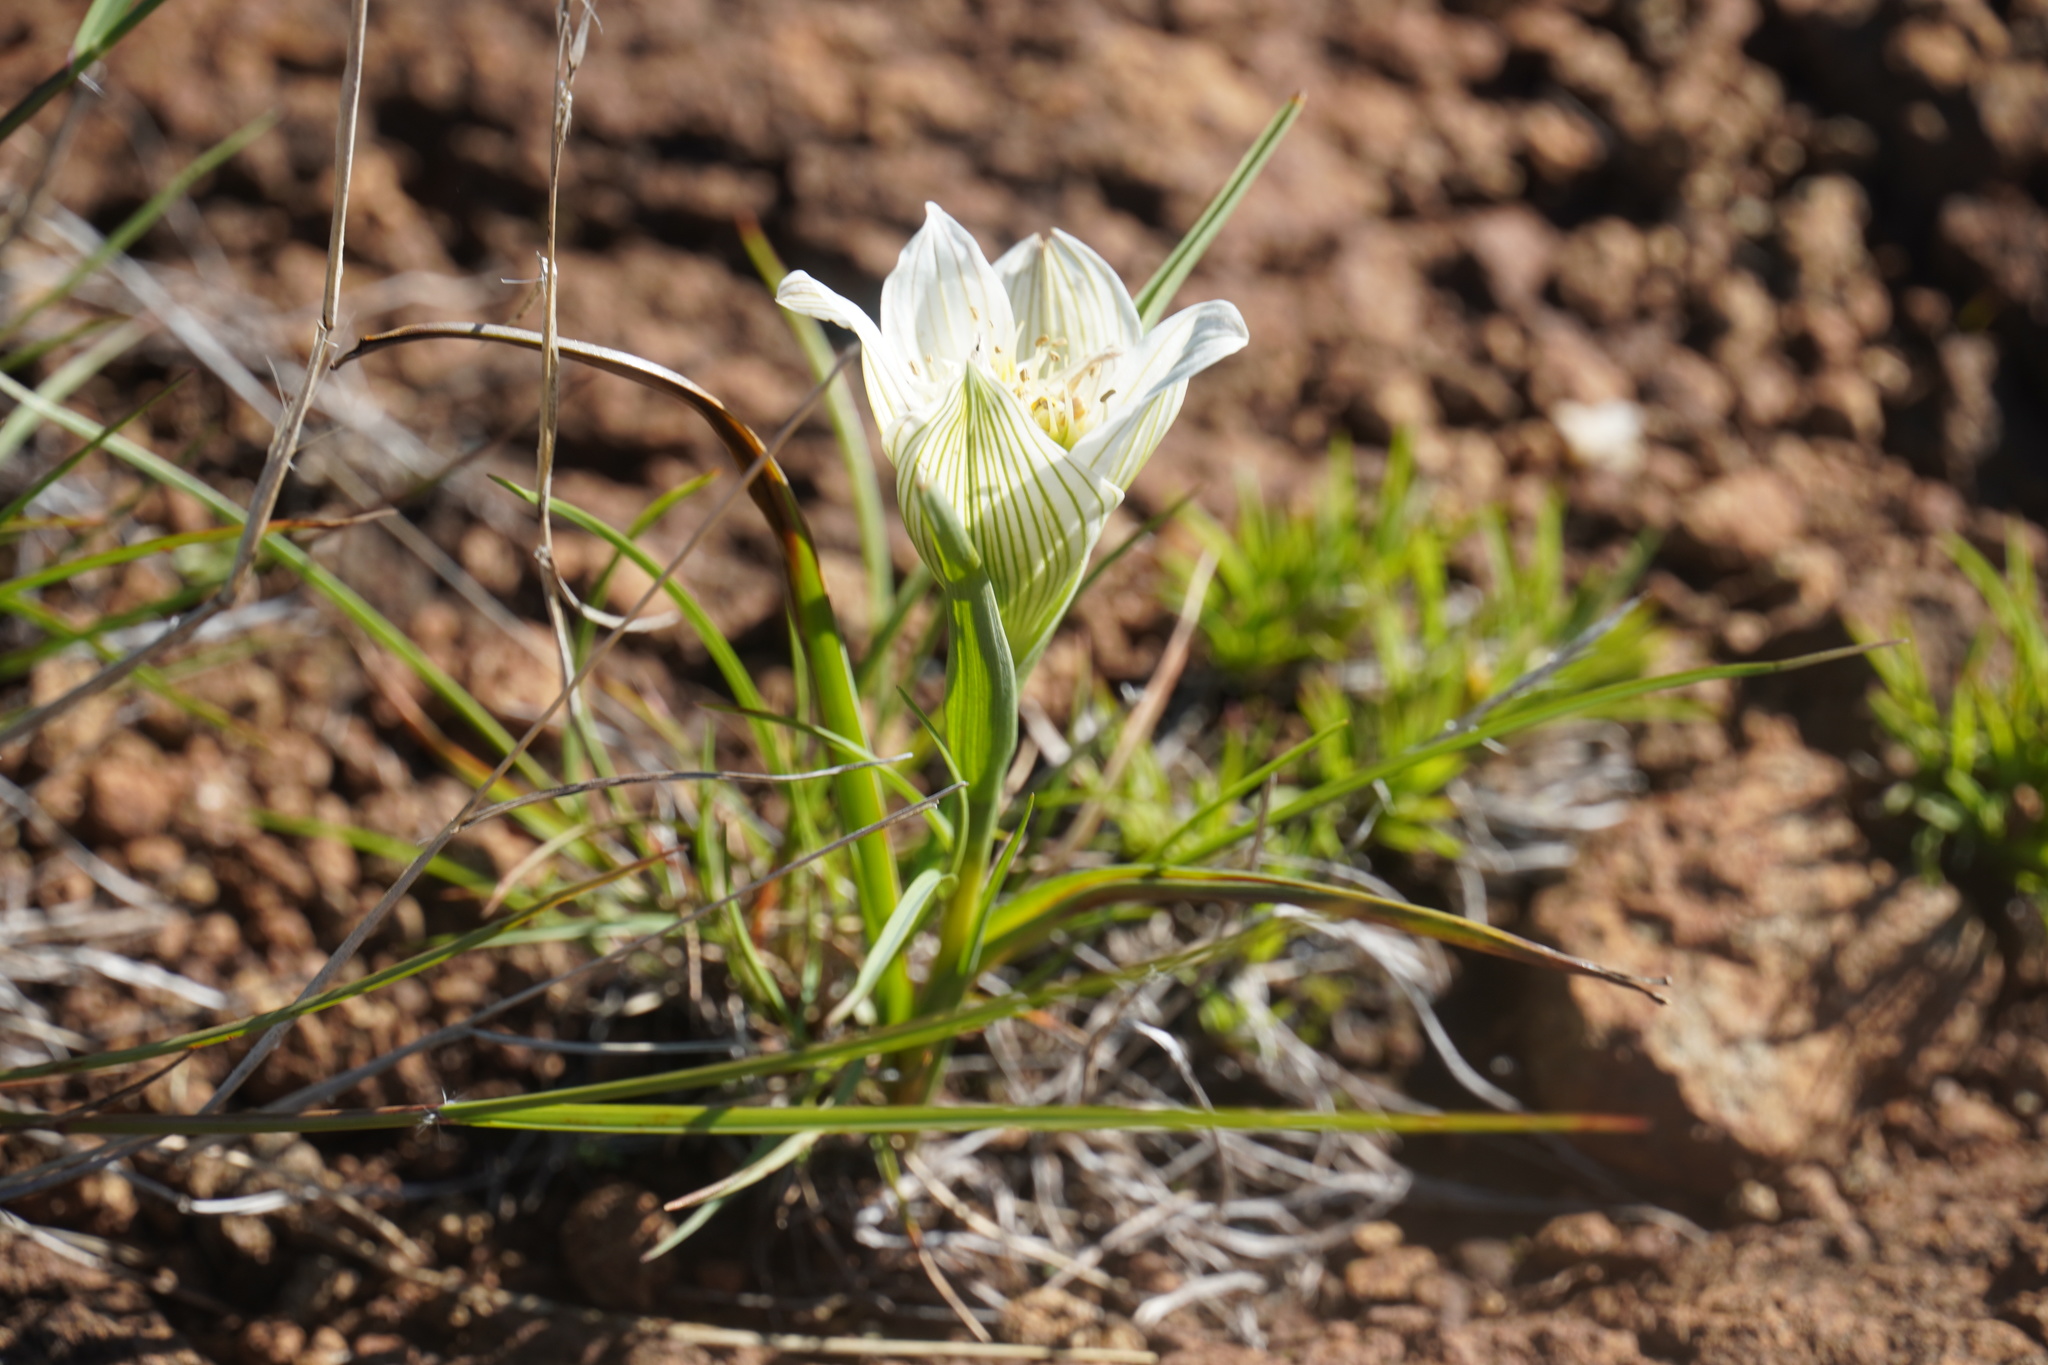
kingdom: Plantae
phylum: Tracheophyta
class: Liliopsida
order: Liliales
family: Colchicaceae
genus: Colchicum
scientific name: Colchicum striatum
